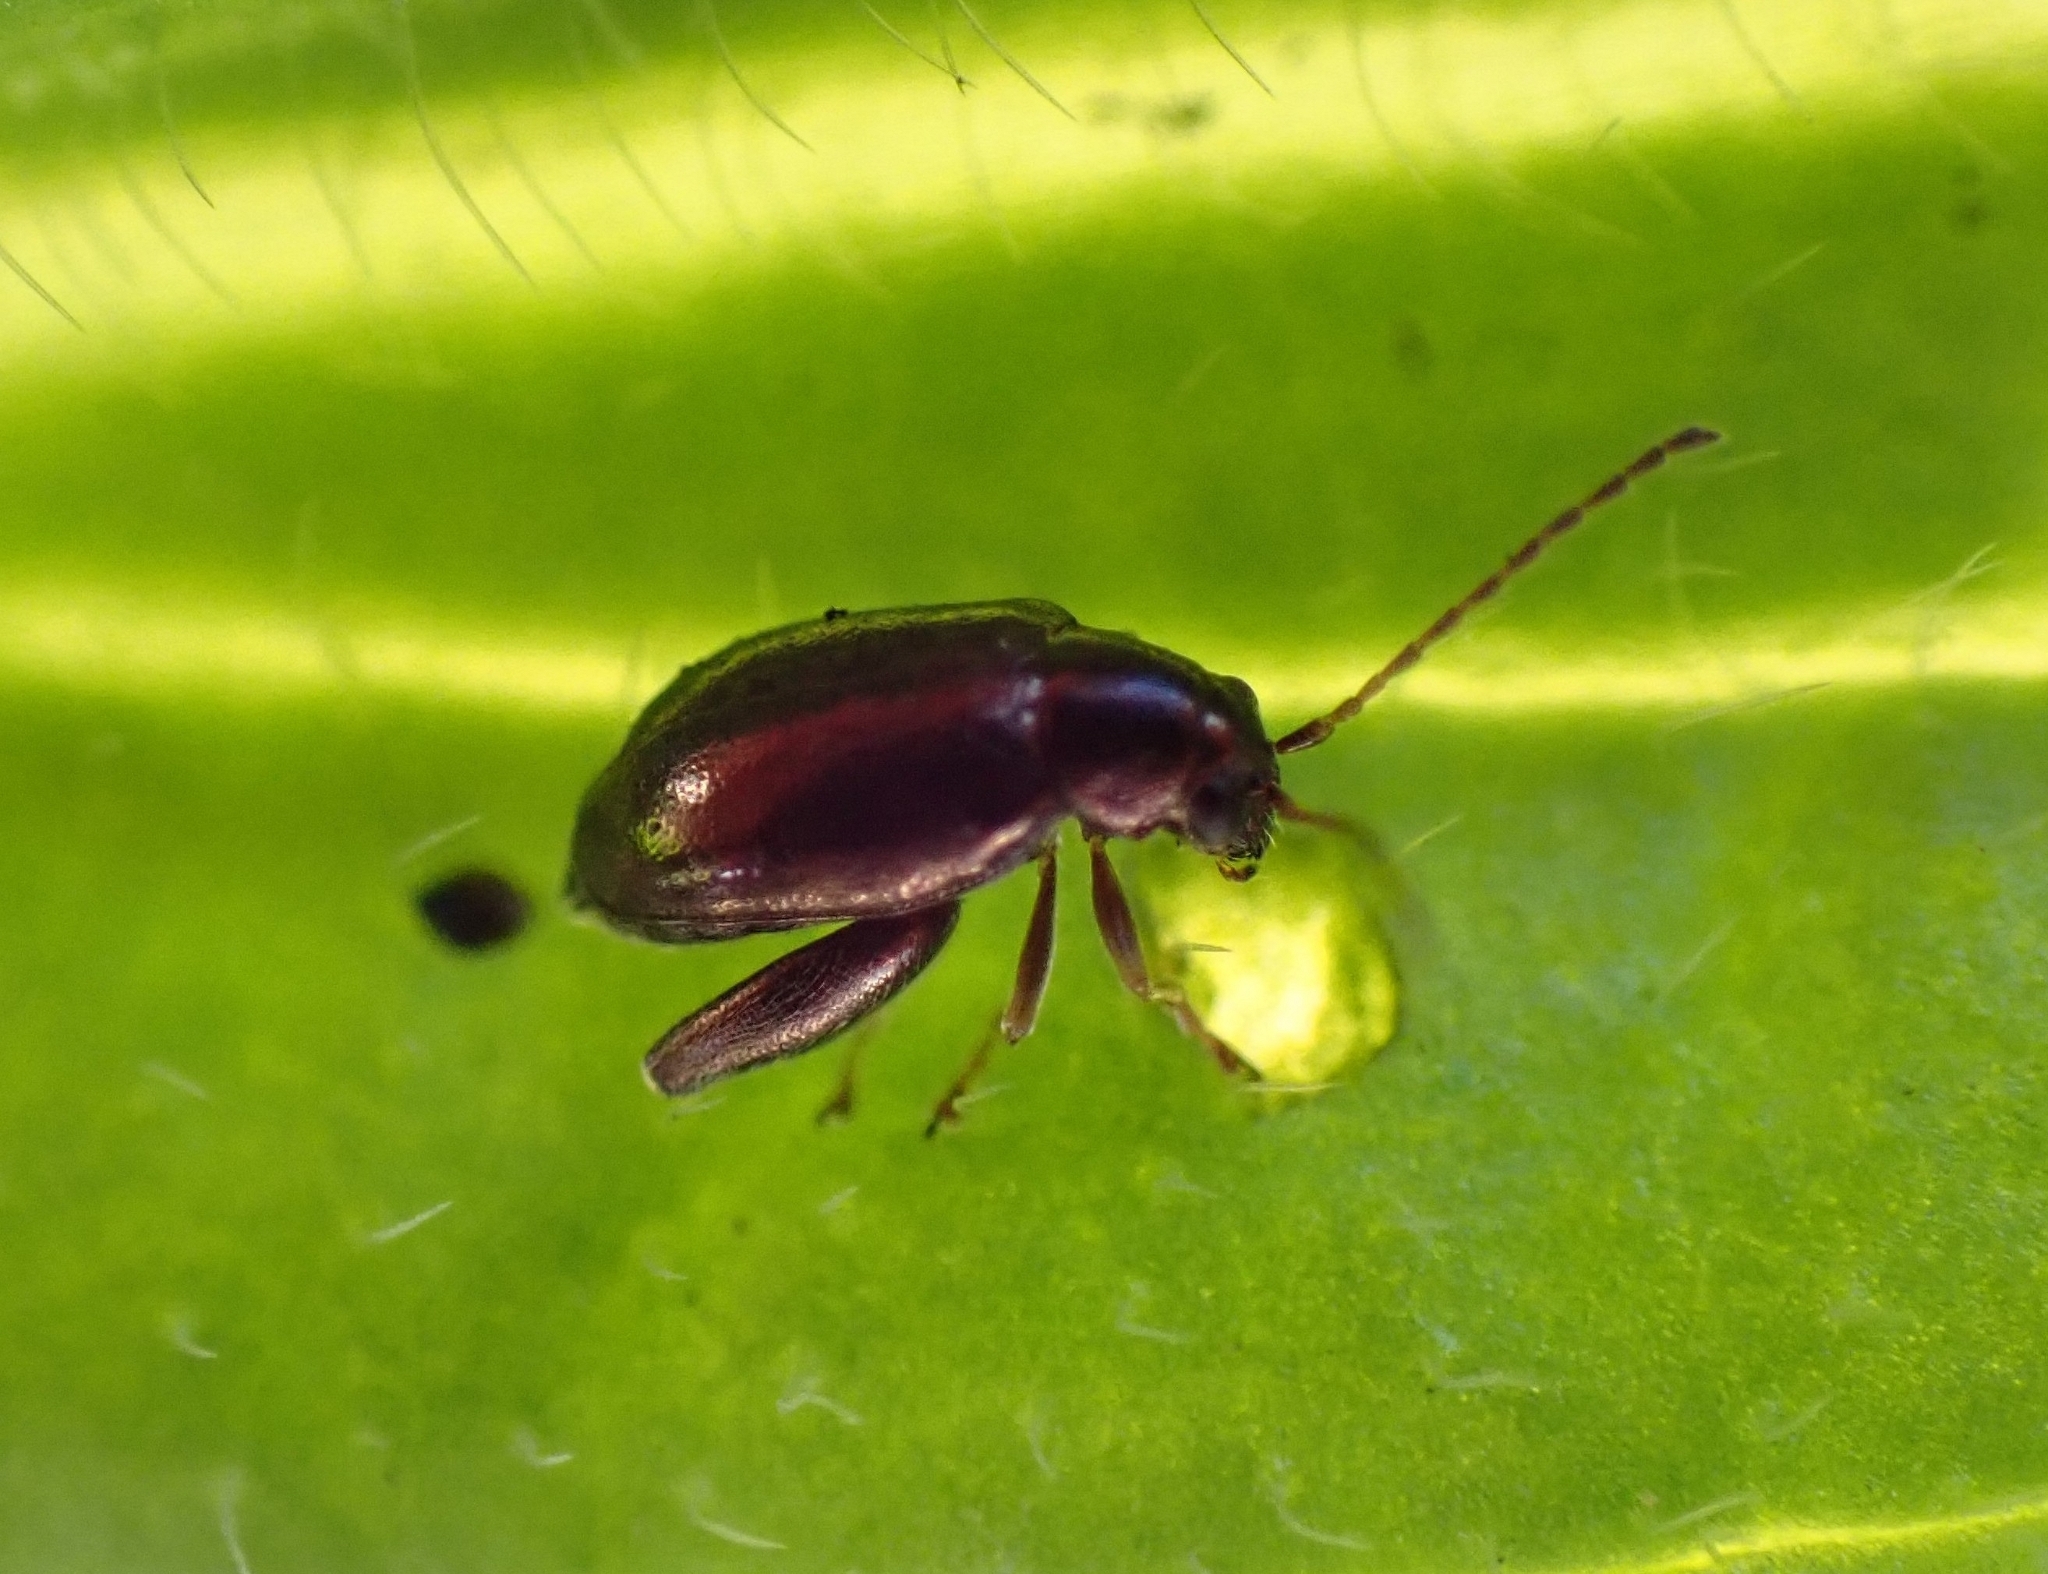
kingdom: Animalia
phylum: Arthropoda
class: Insecta
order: Coleoptera
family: Chrysomelidae
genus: Longitarsus
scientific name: Longitarsus echii
